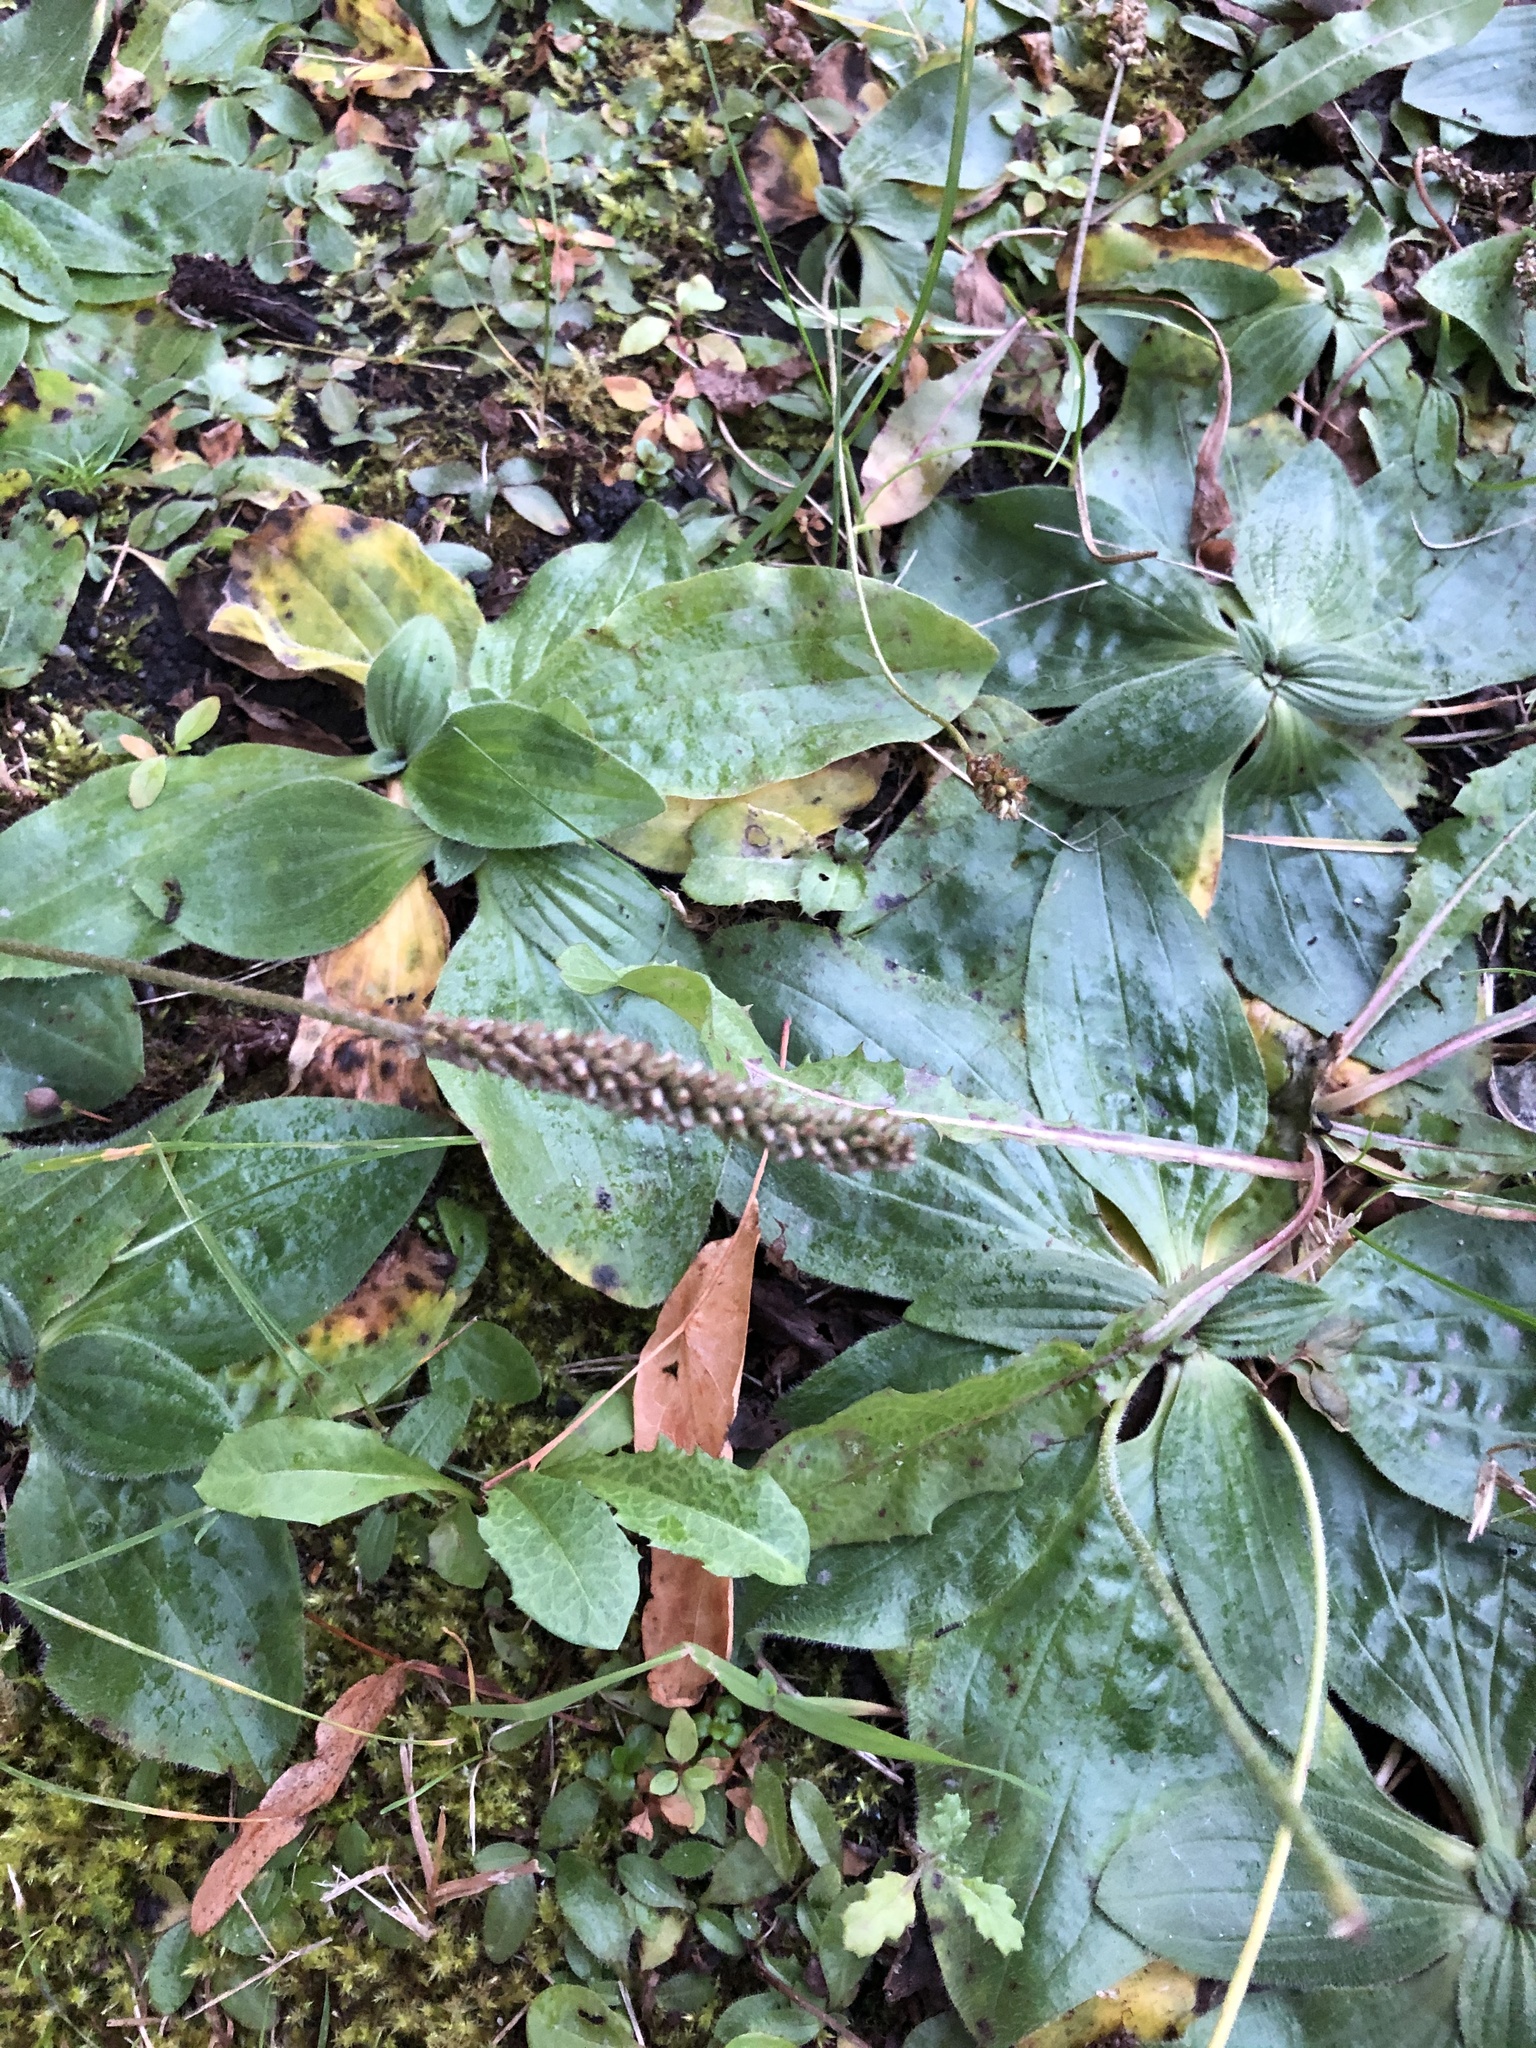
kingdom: Plantae
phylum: Tracheophyta
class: Magnoliopsida
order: Lamiales
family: Plantaginaceae
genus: Plantago
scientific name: Plantago media
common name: Hoary plantain
